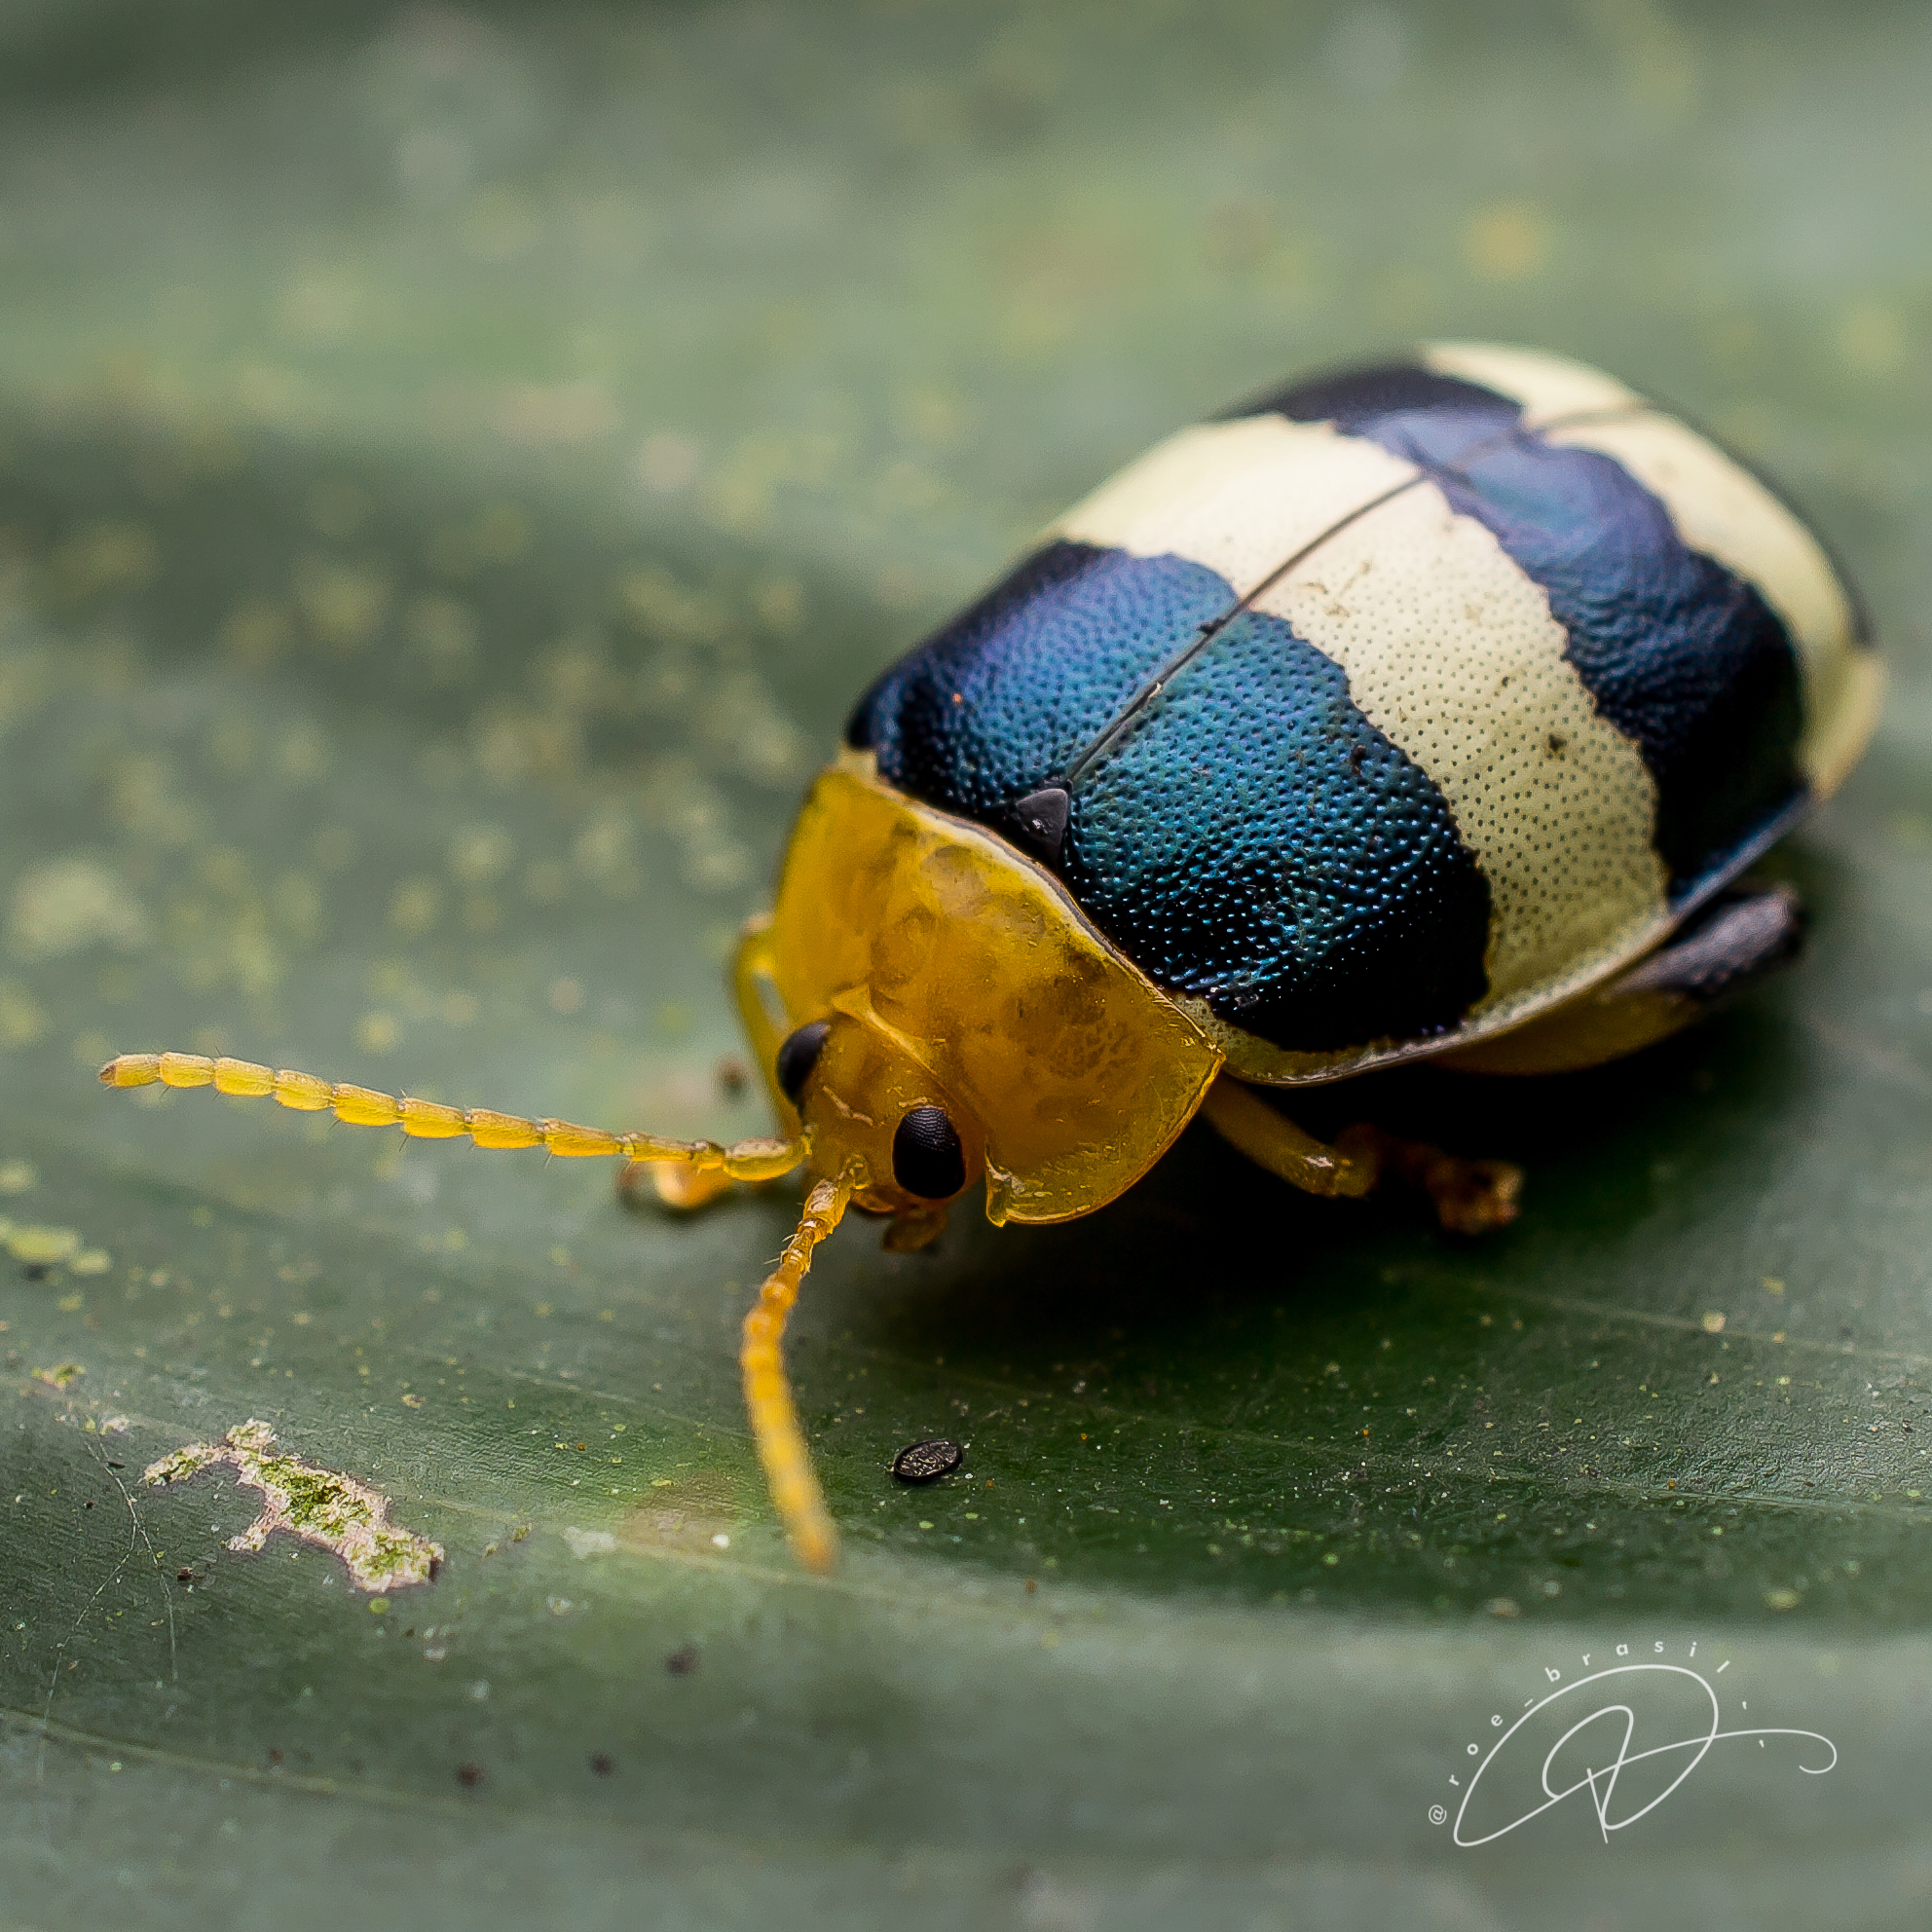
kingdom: Animalia
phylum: Arthropoda
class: Insecta
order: Coleoptera
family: Chrysomelidae
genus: Paranaita
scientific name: Paranaita
